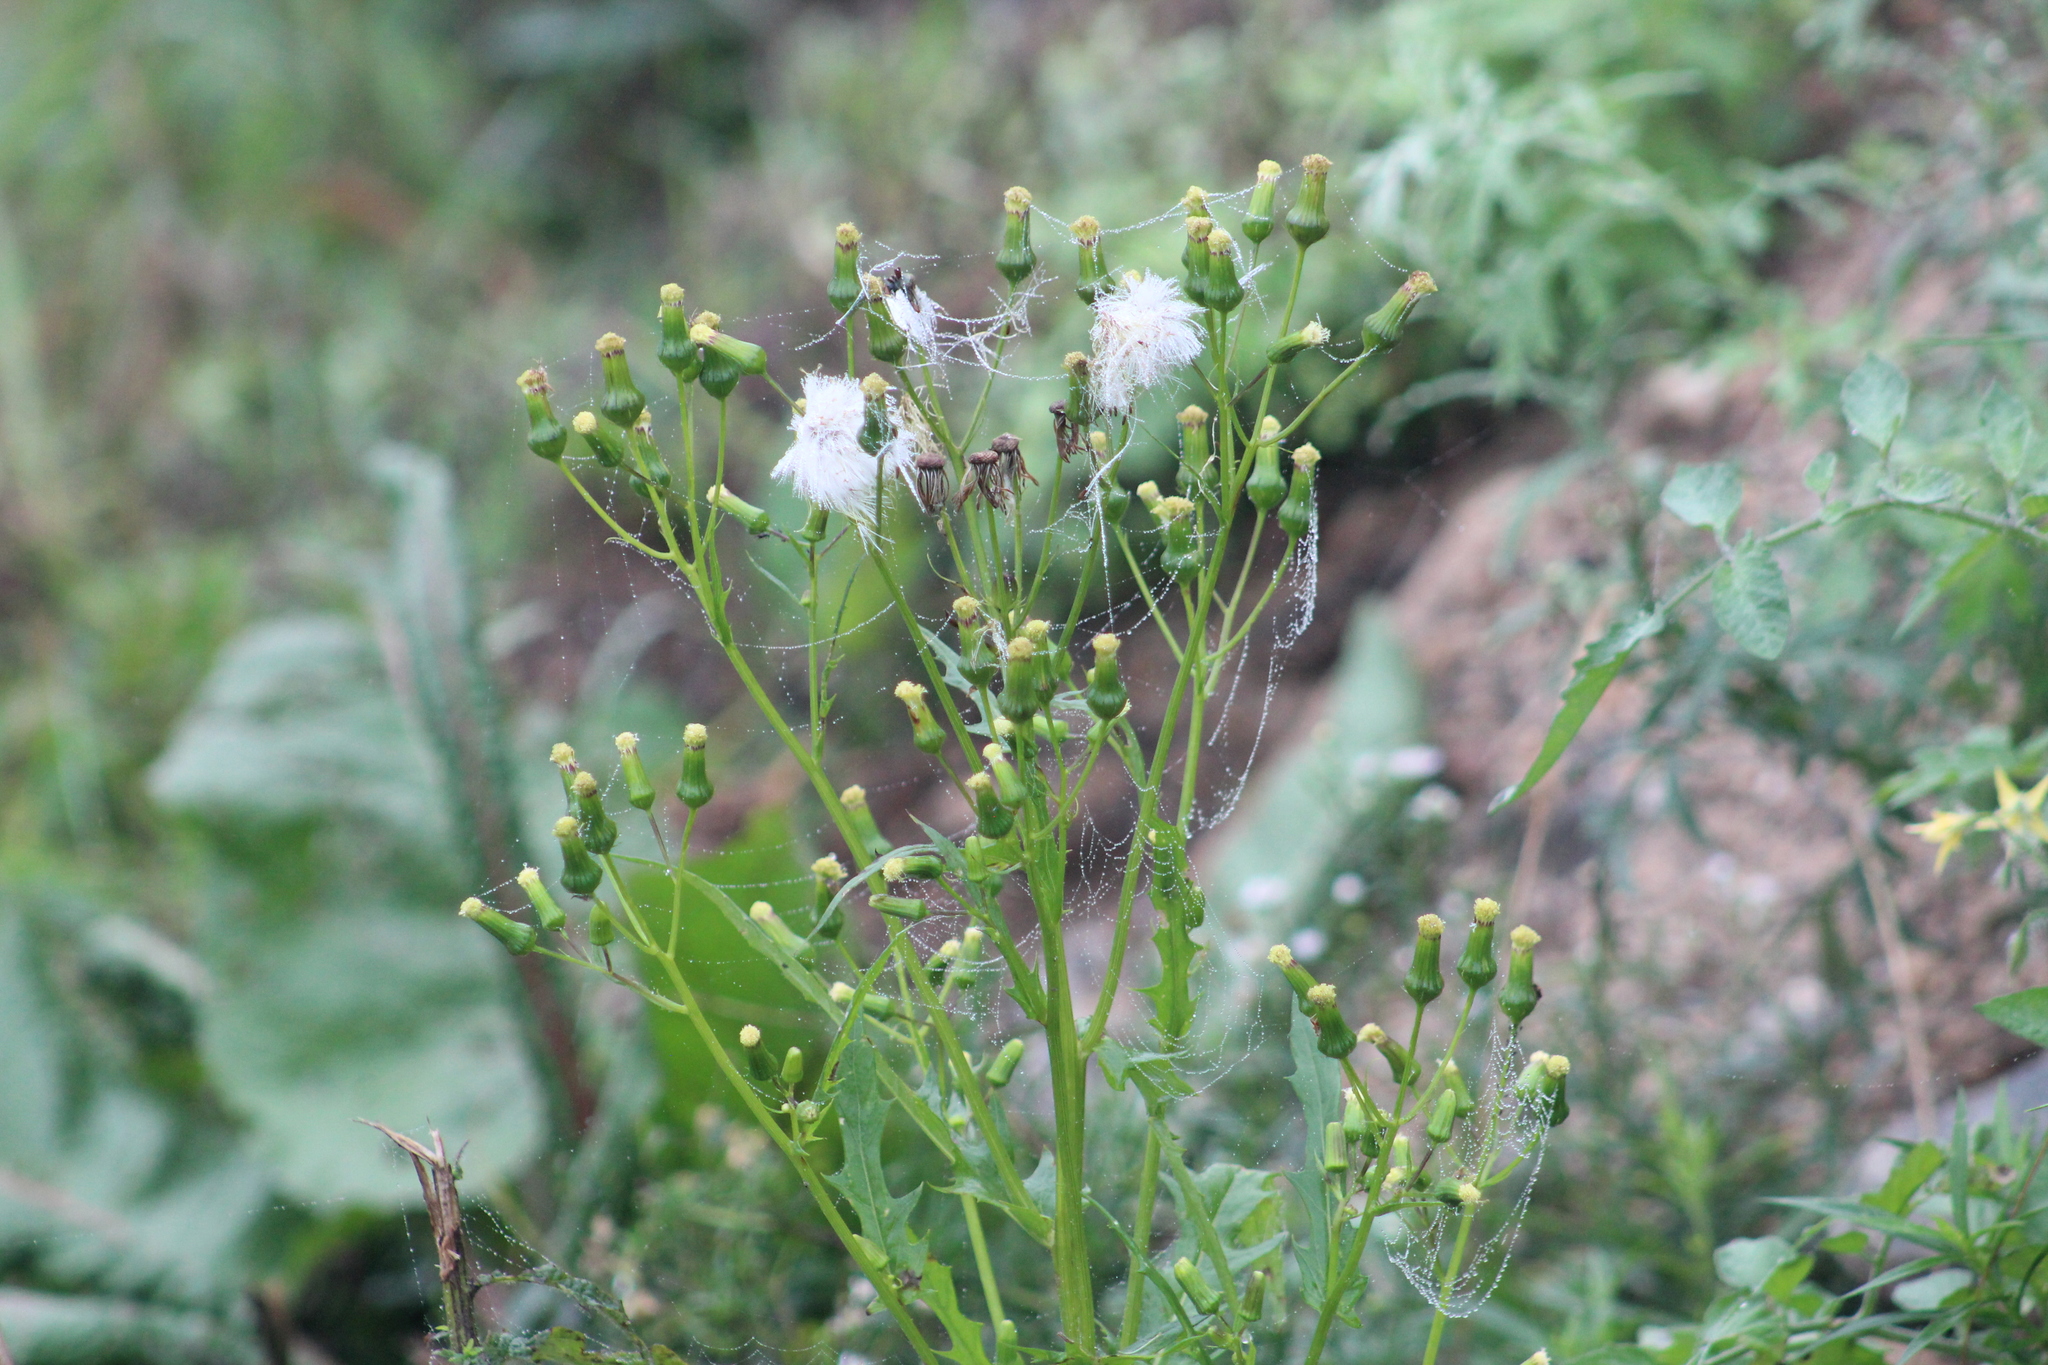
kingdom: Plantae
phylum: Tracheophyta
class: Magnoliopsida
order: Asterales
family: Asteraceae
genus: Erechtites
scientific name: Erechtites hieraciifolius
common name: American burnweed
